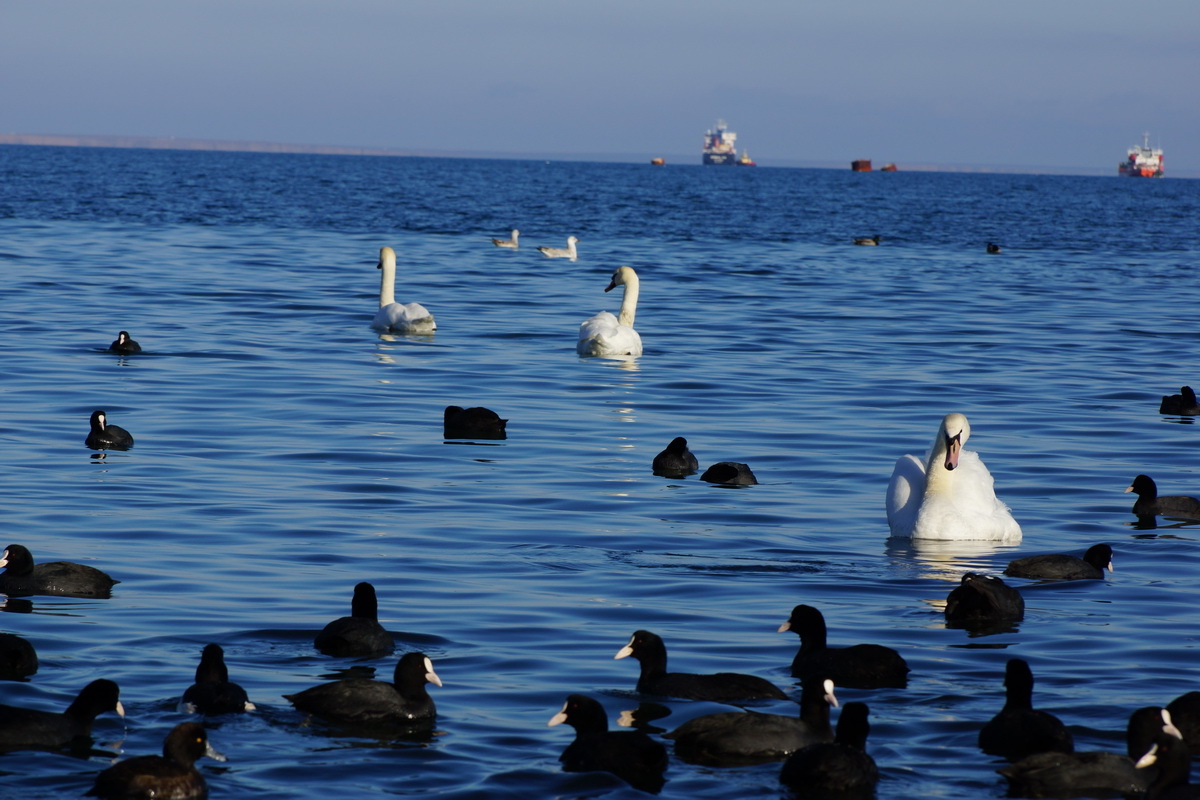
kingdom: Animalia
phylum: Chordata
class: Aves
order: Gruiformes
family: Rallidae
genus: Fulica
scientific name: Fulica atra
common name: Eurasian coot
